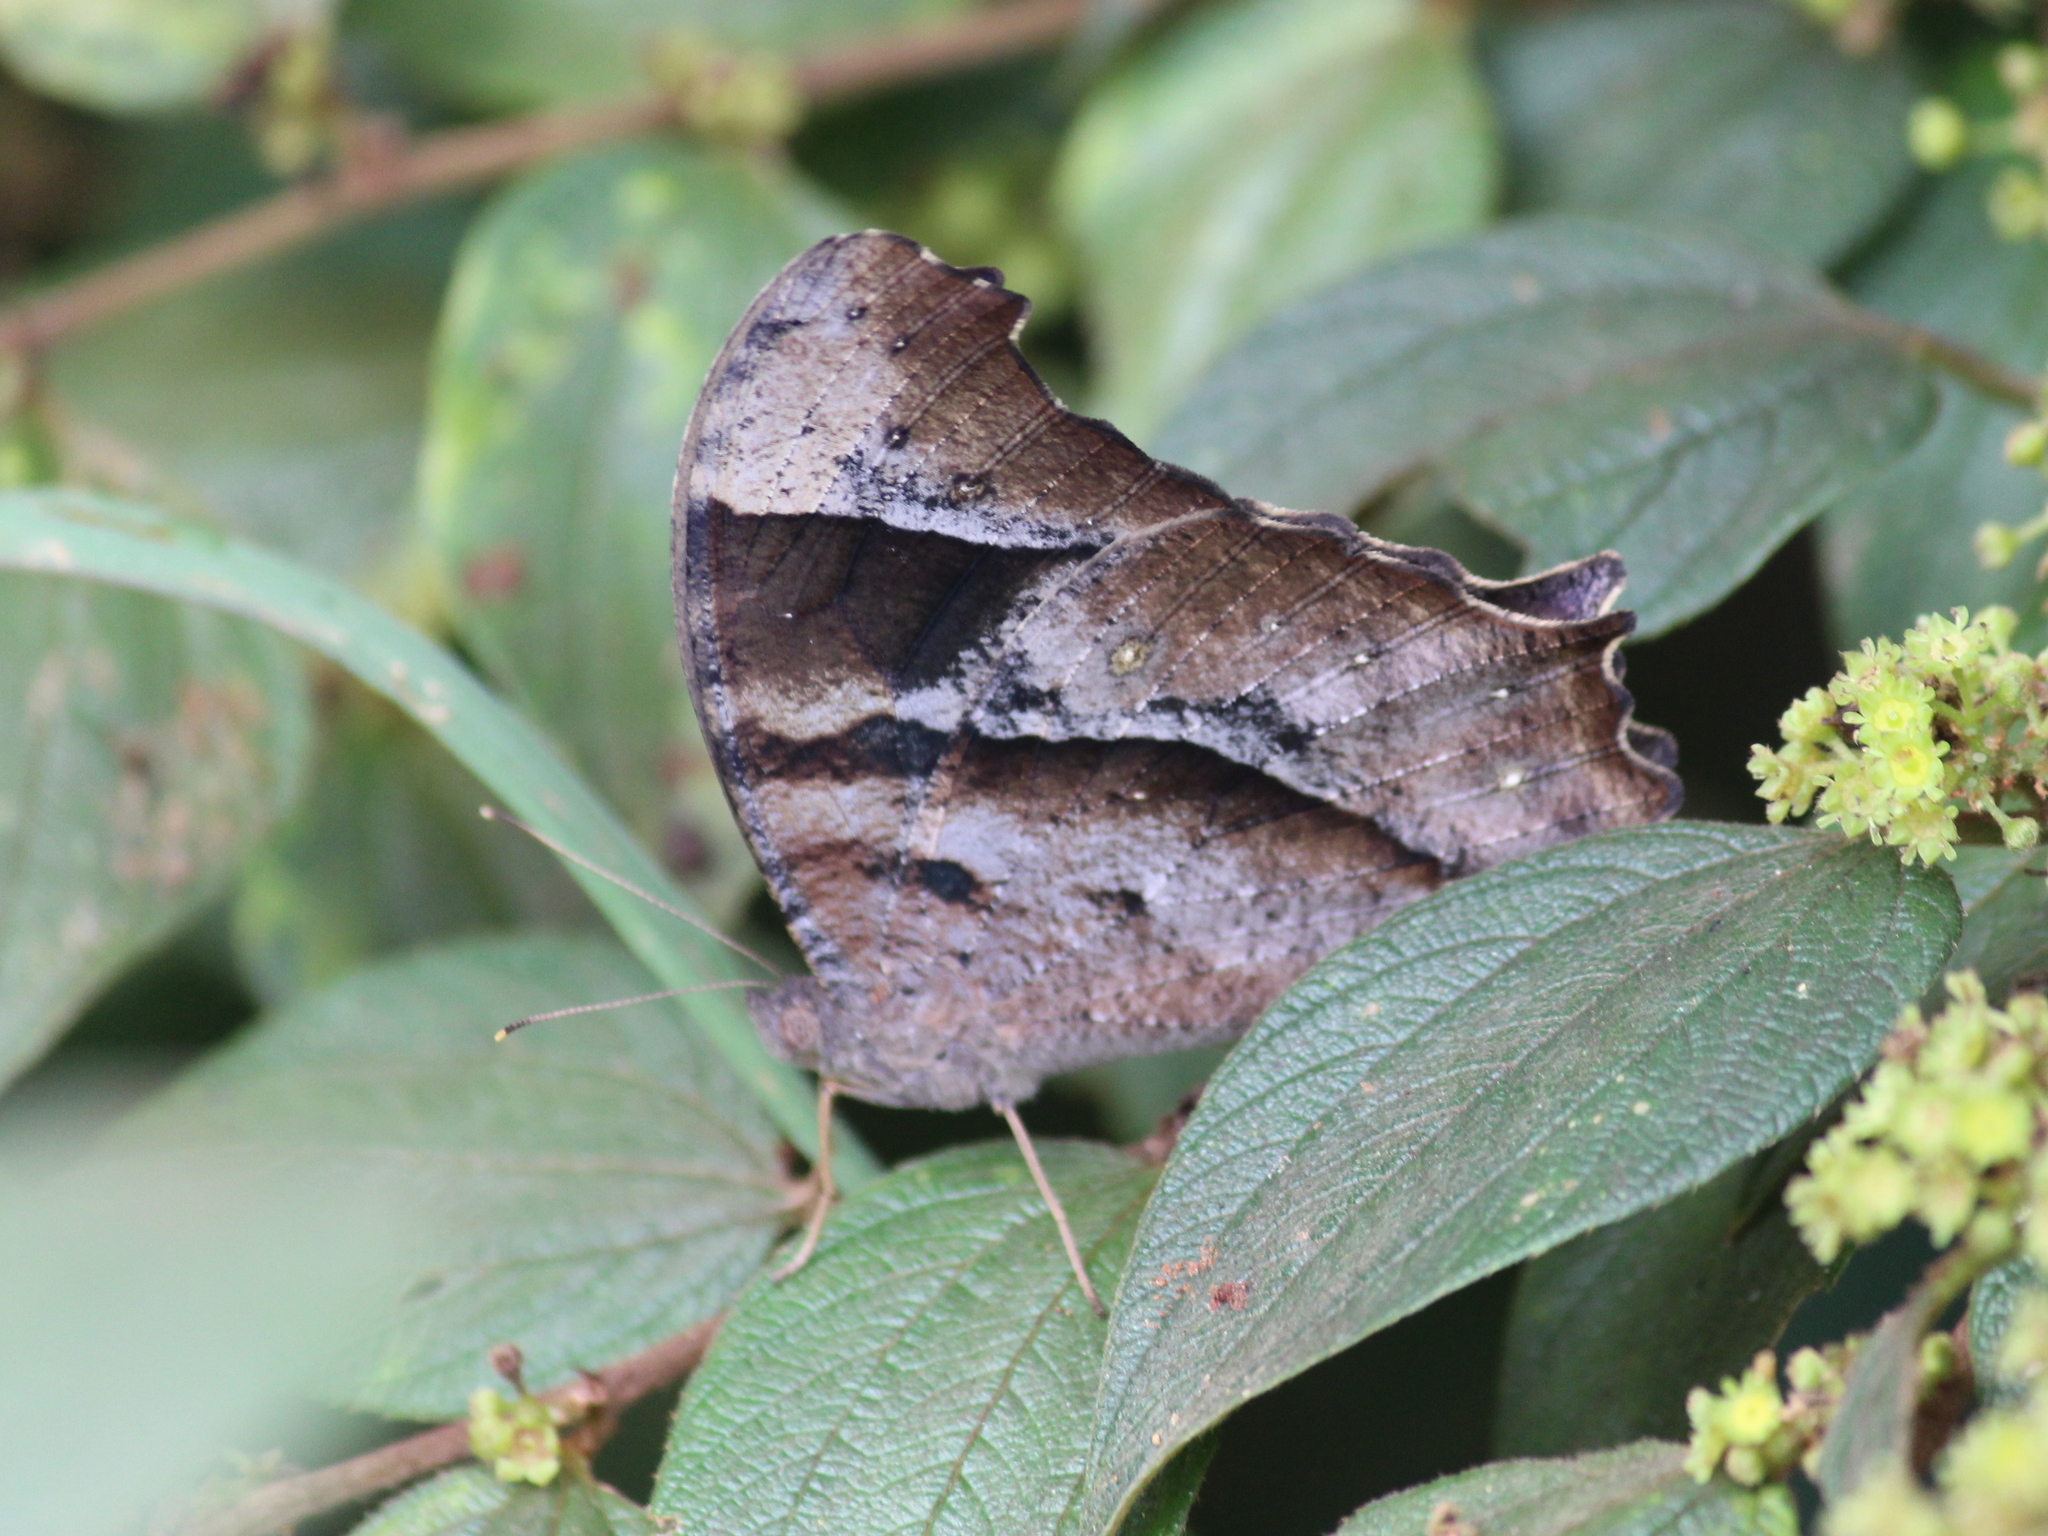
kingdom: Animalia
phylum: Arthropoda
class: Insecta
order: Lepidoptera
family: Nymphalidae
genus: Melanitis
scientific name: Melanitis leda
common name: Twilight brown
